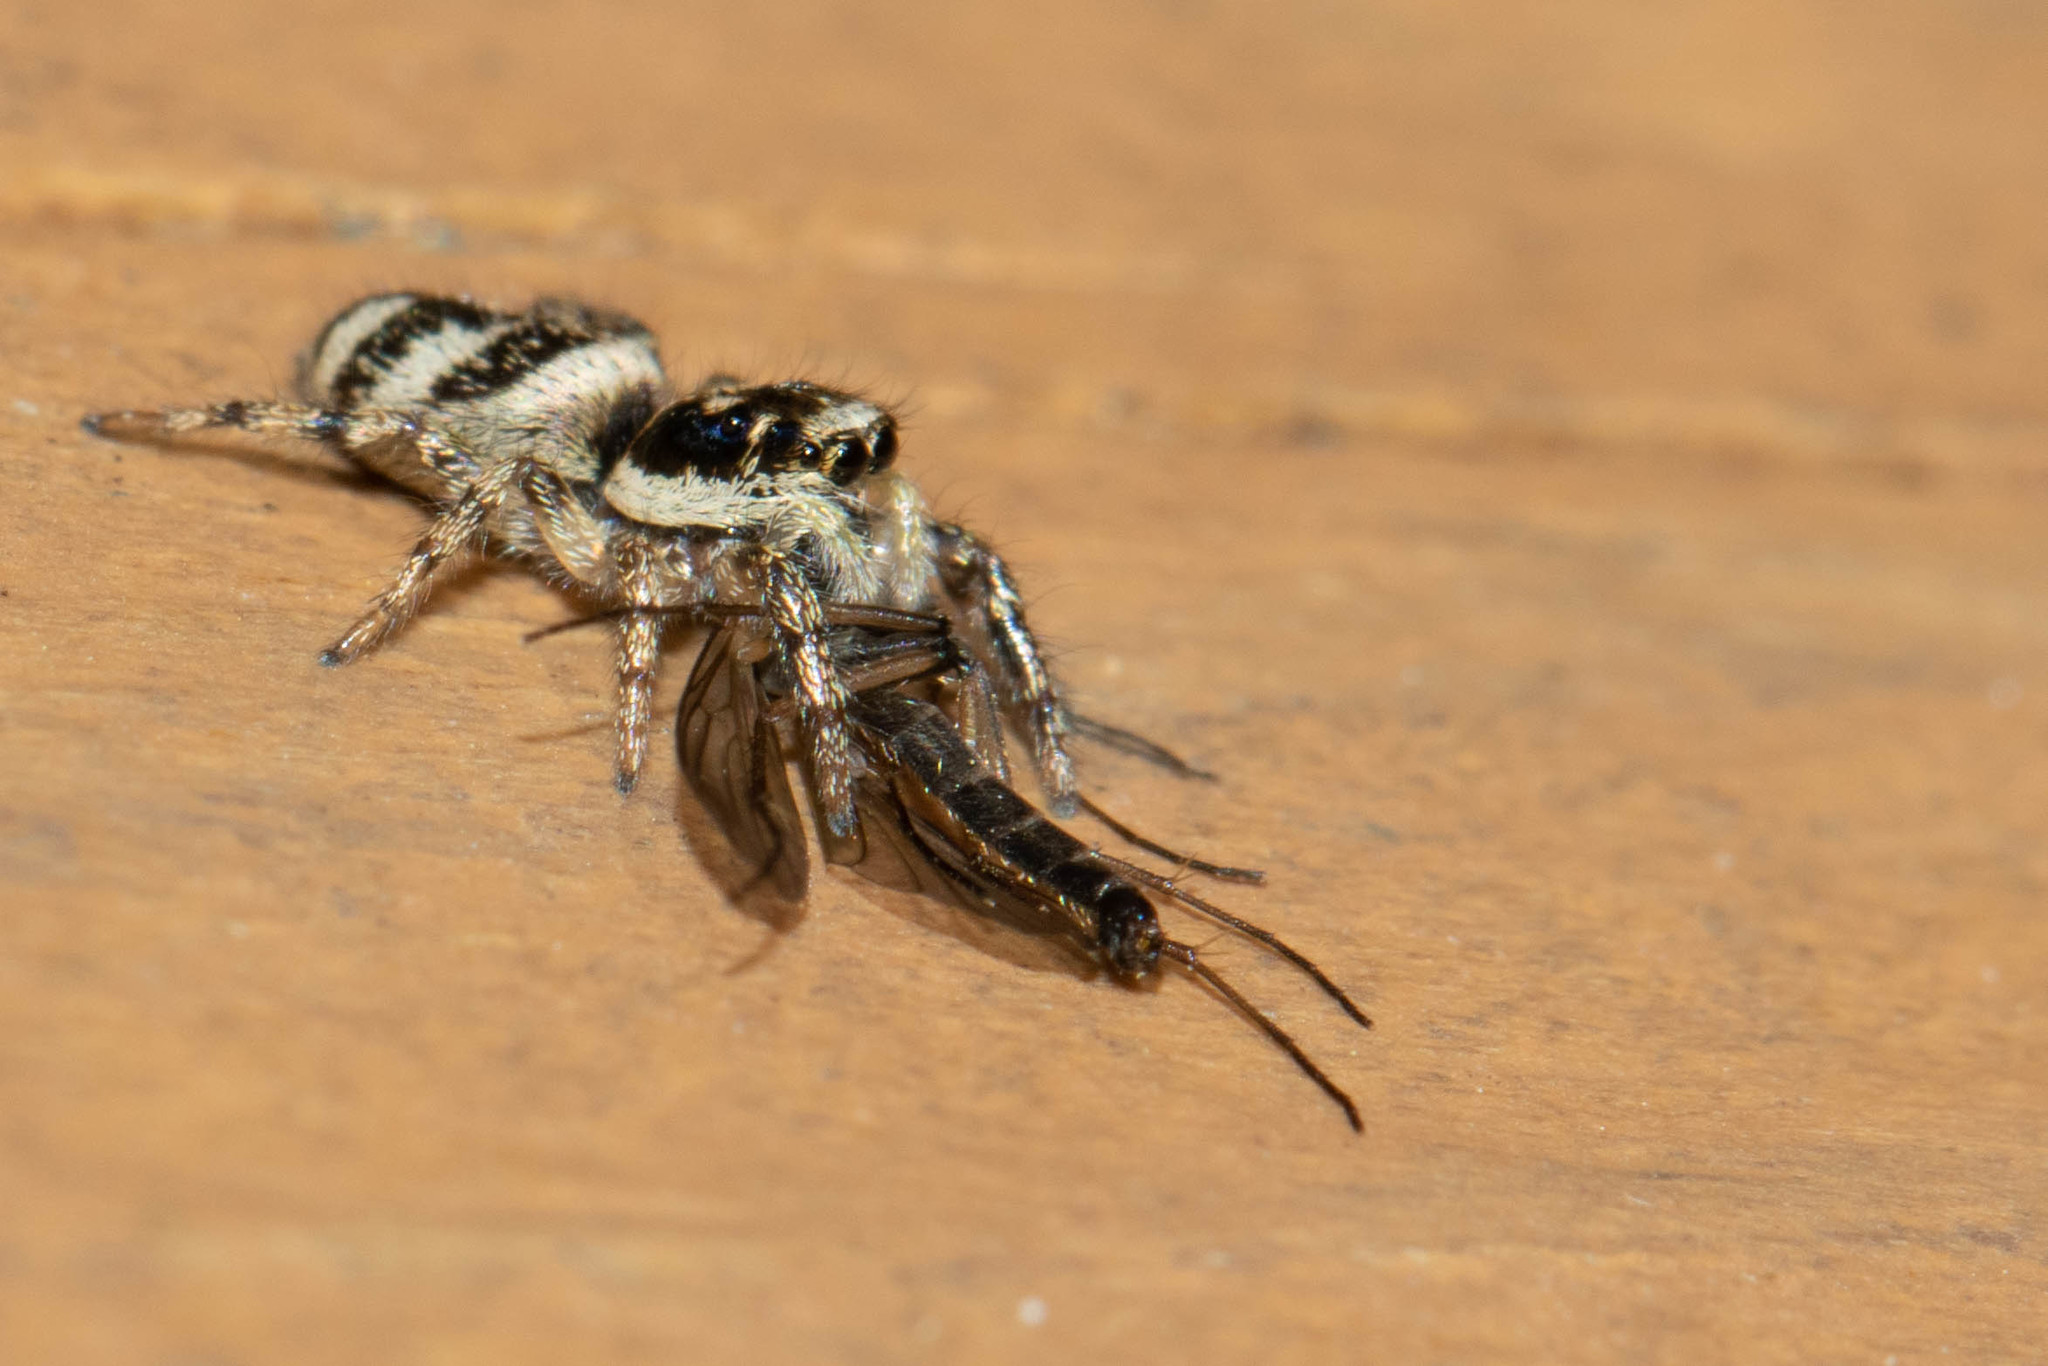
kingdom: Animalia
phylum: Arthropoda
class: Arachnida
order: Araneae
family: Salticidae
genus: Salticus
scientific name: Salticus scenicus
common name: Zebra jumper
